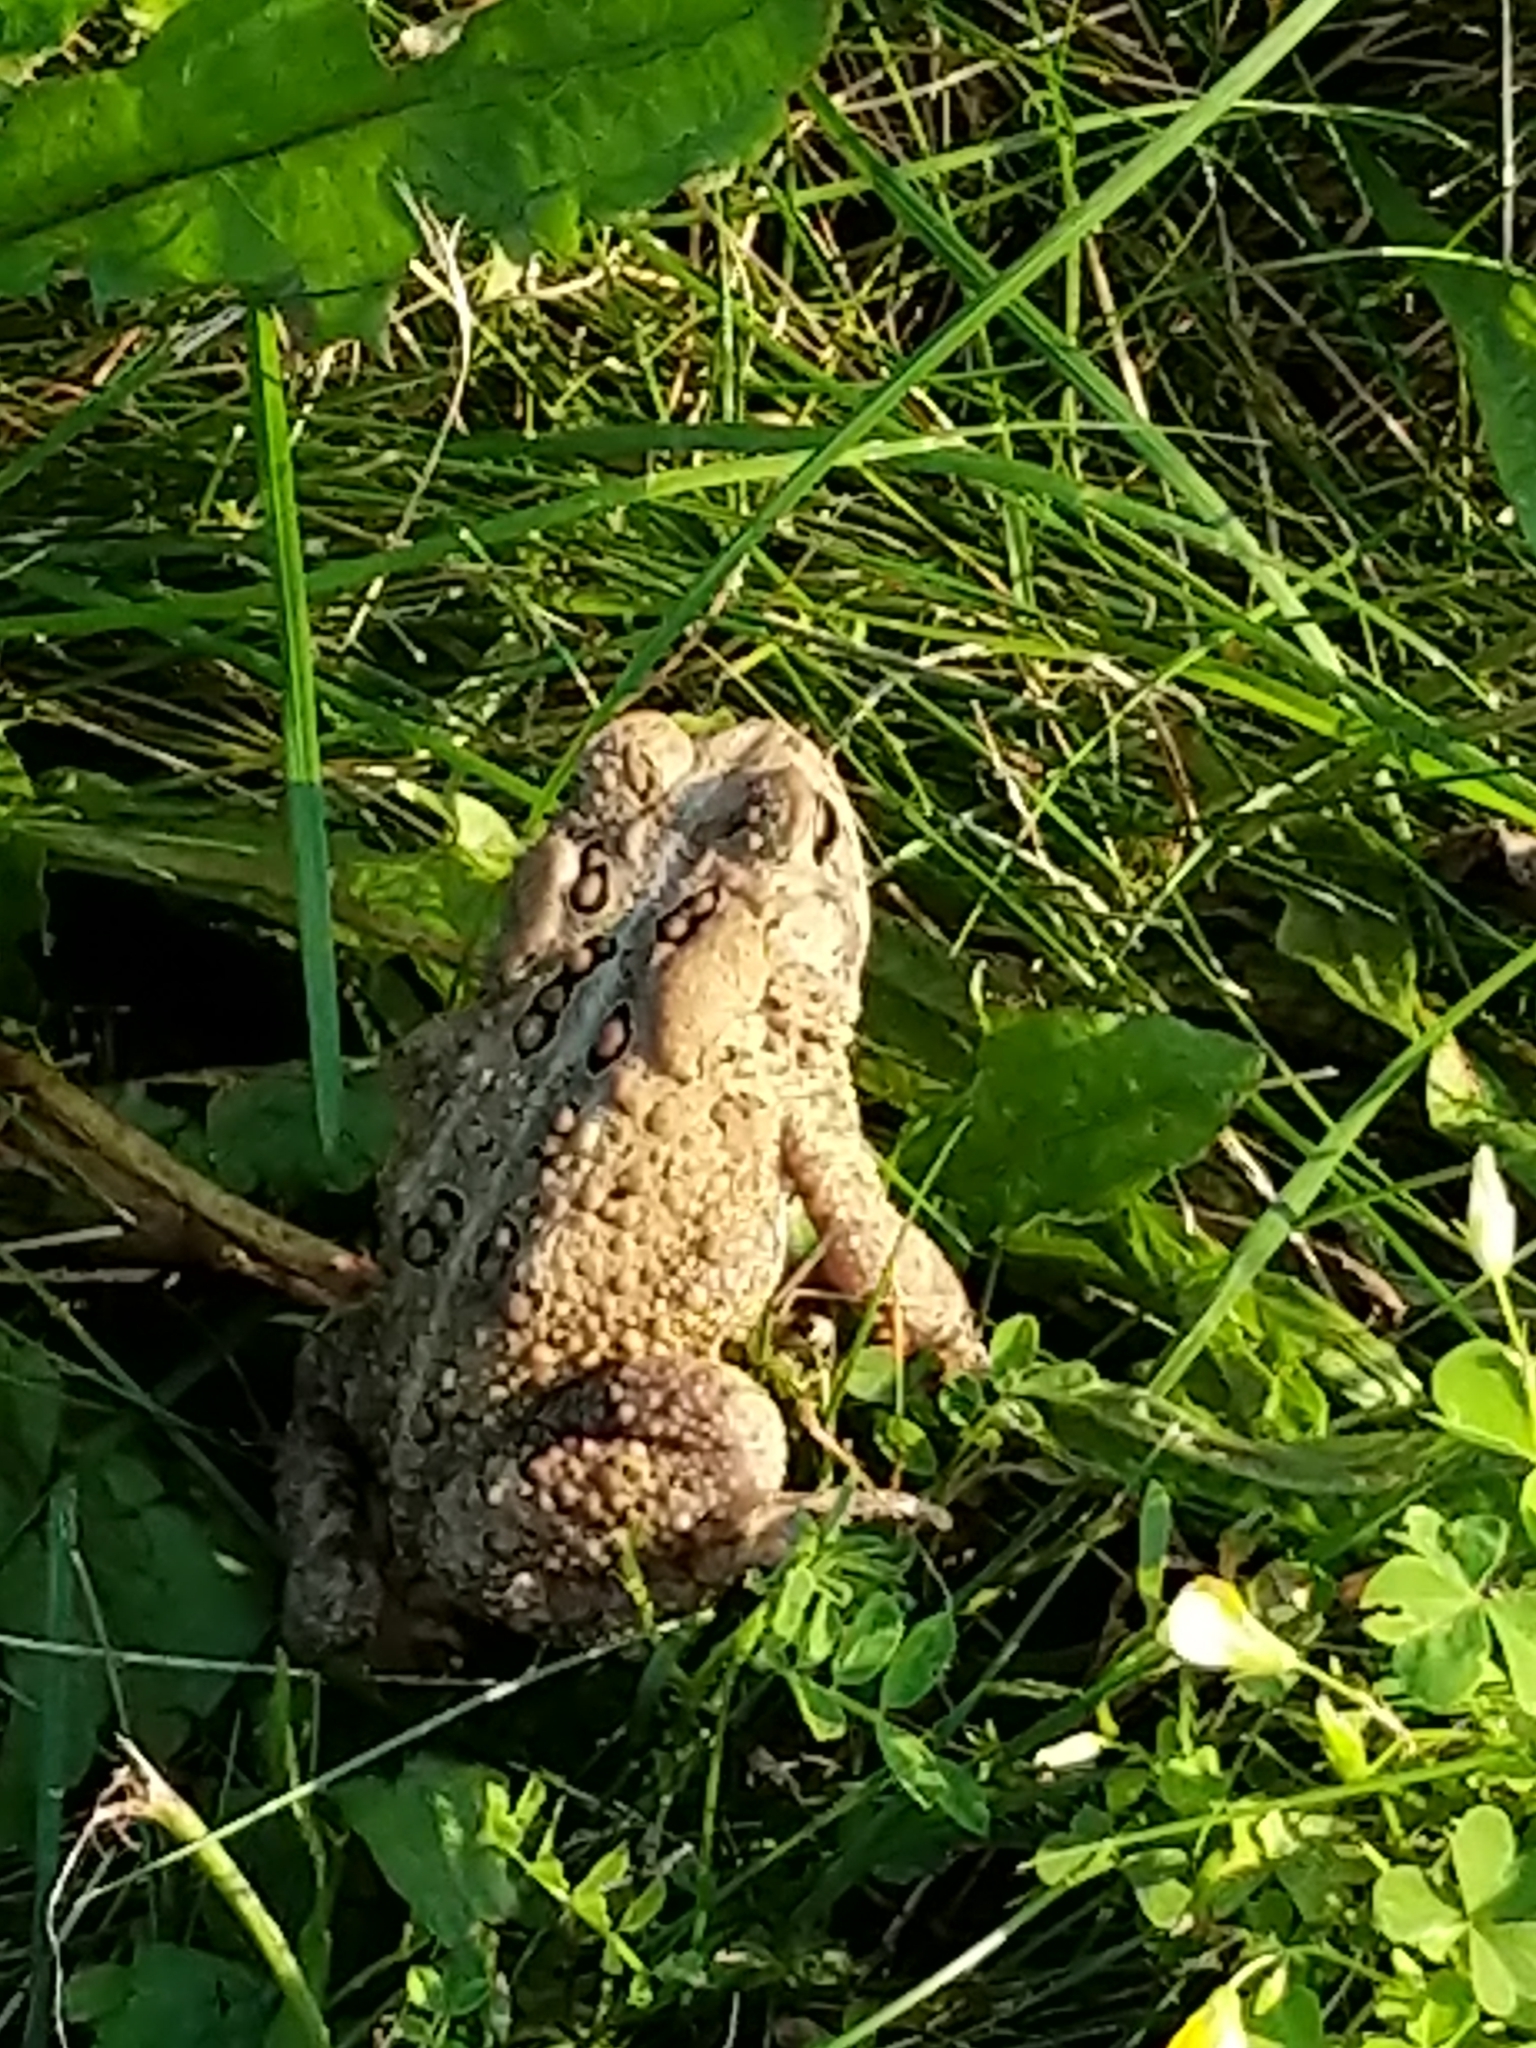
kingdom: Animalia
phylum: Chordata
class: Amphibia
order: Anura
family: Bufonidae
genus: Anaxyrus
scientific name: Anaxyrus americanus
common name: American toad
